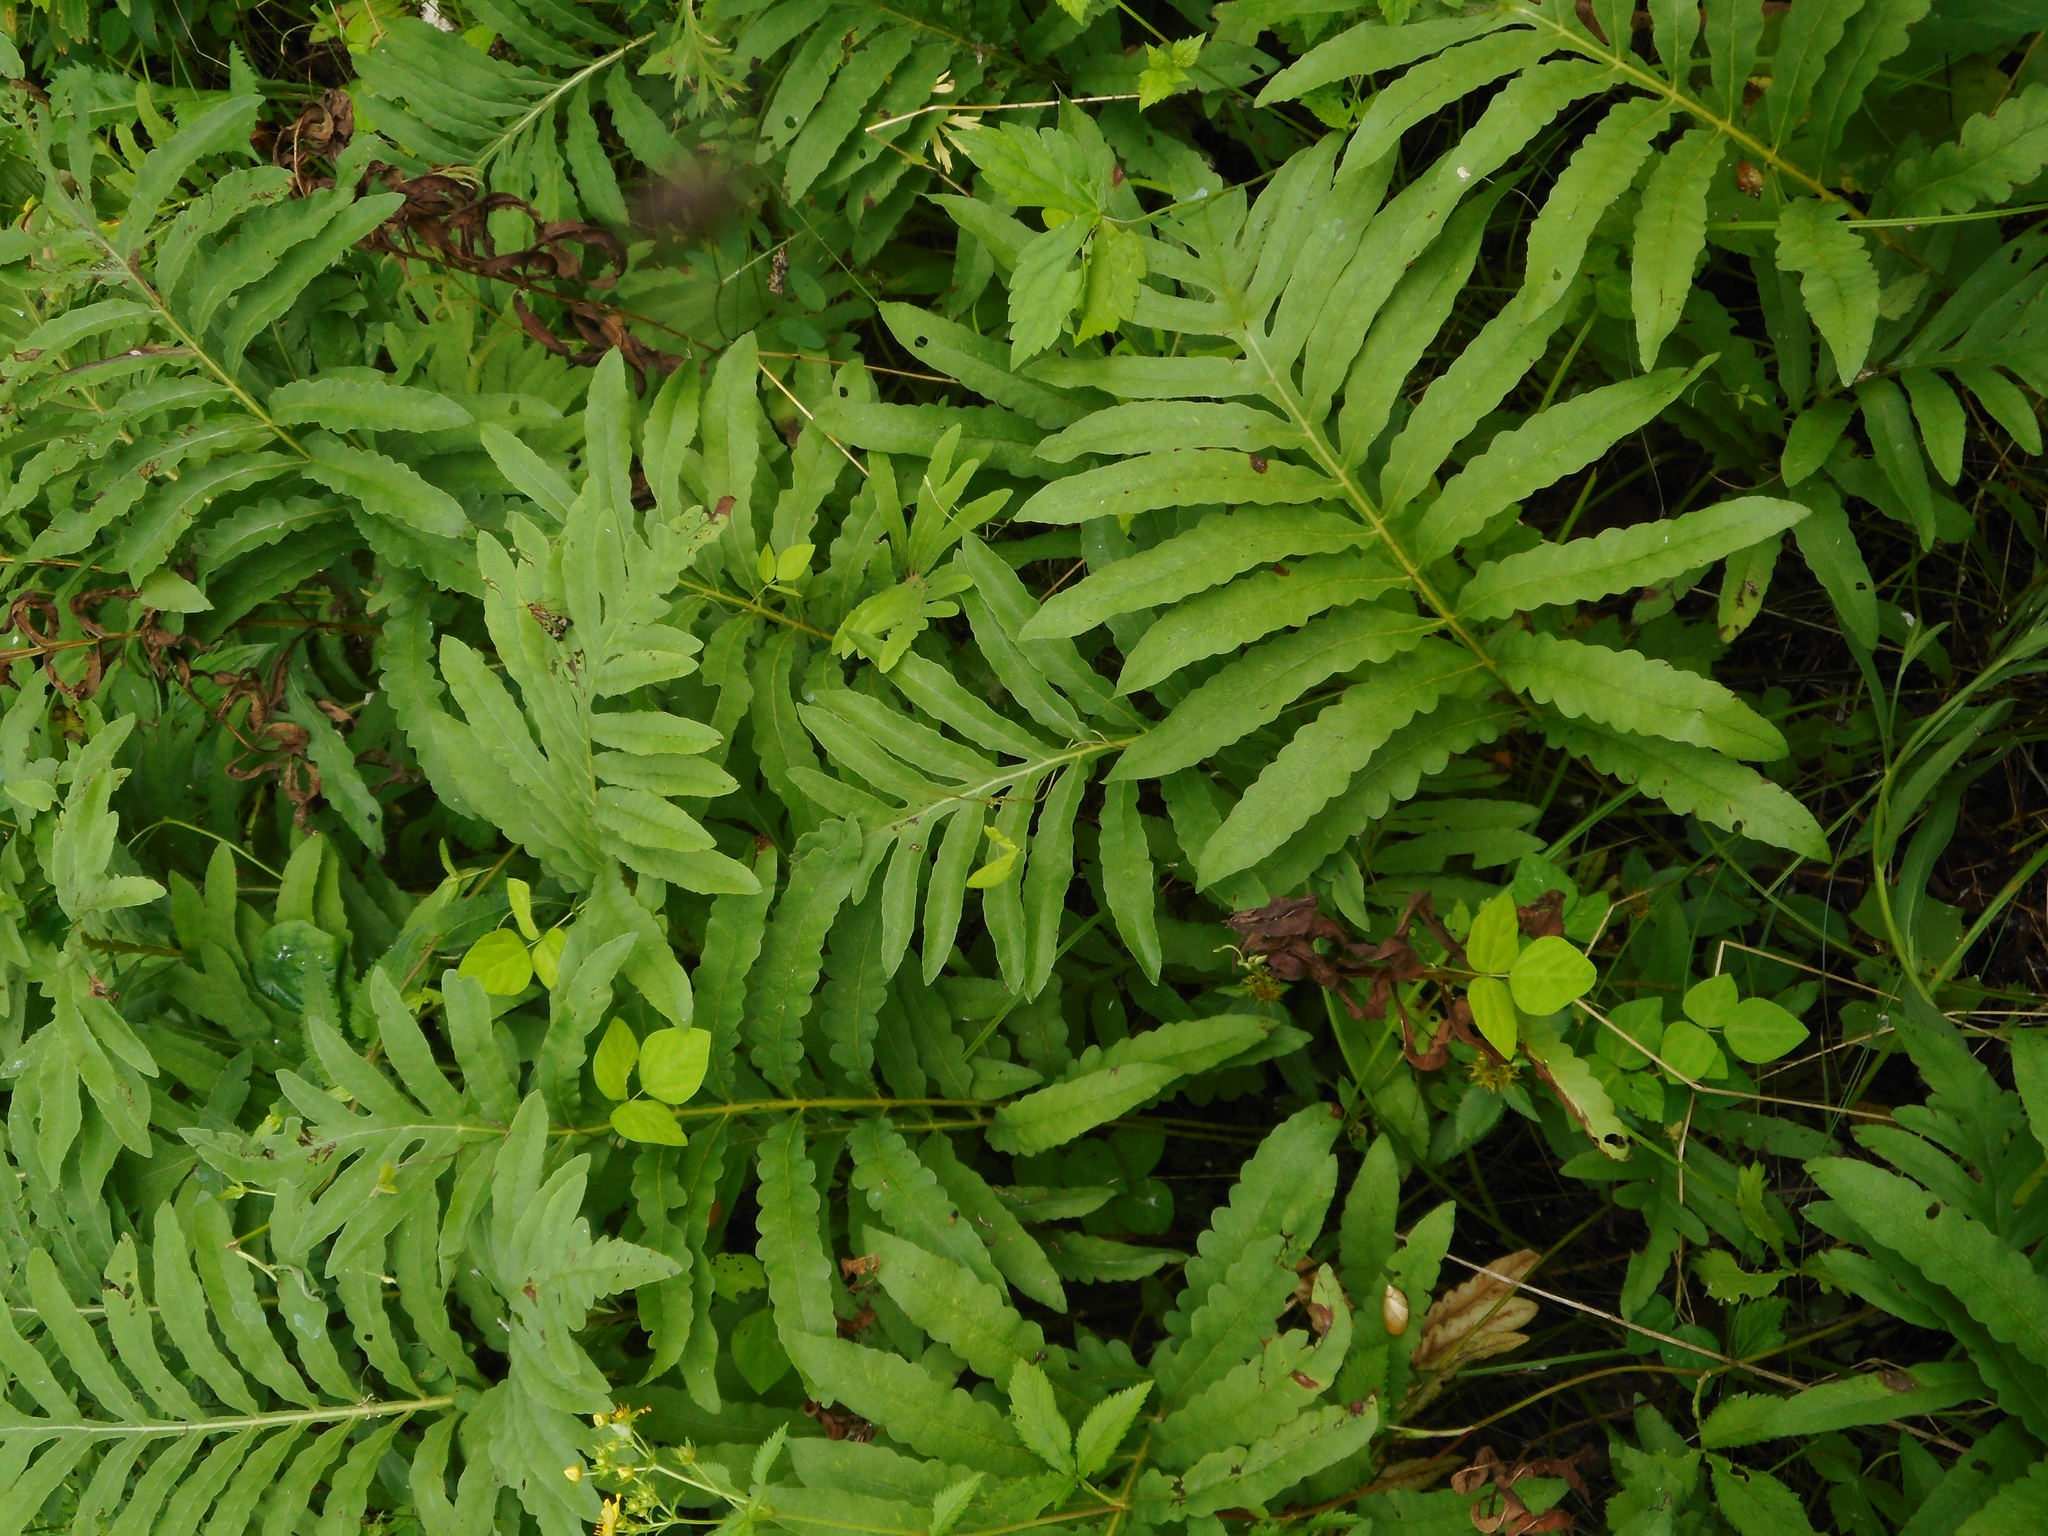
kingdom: Plantae
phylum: Tracheophyta
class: Polypodiopsida
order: Polypodiales
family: Onocleaceae
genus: Onoclea
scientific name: Onoclea sensibilis
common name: Sensitive fern
